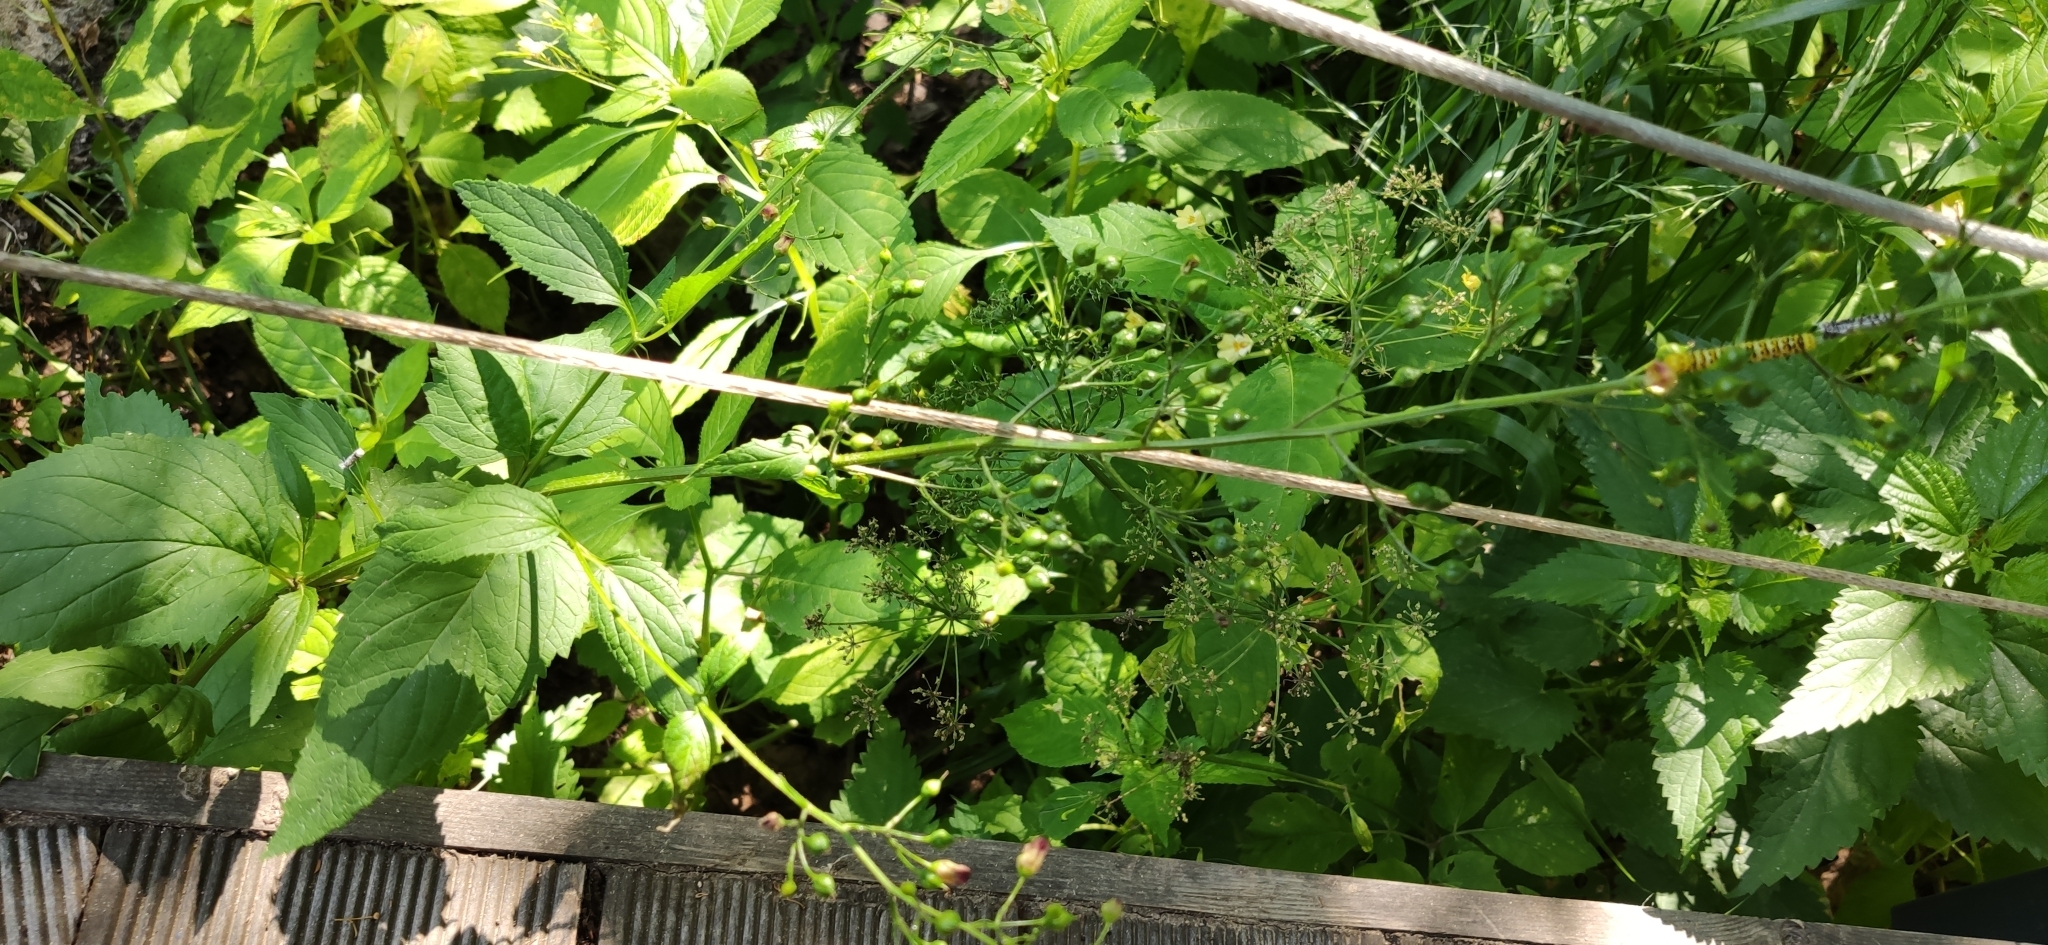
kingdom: Plantae
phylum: Tracheophyta
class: Magnoliopsida
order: Lamiales
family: Scrophulariaceae
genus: Scrophularia
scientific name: Scrophularia nodosa
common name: Common figwort
